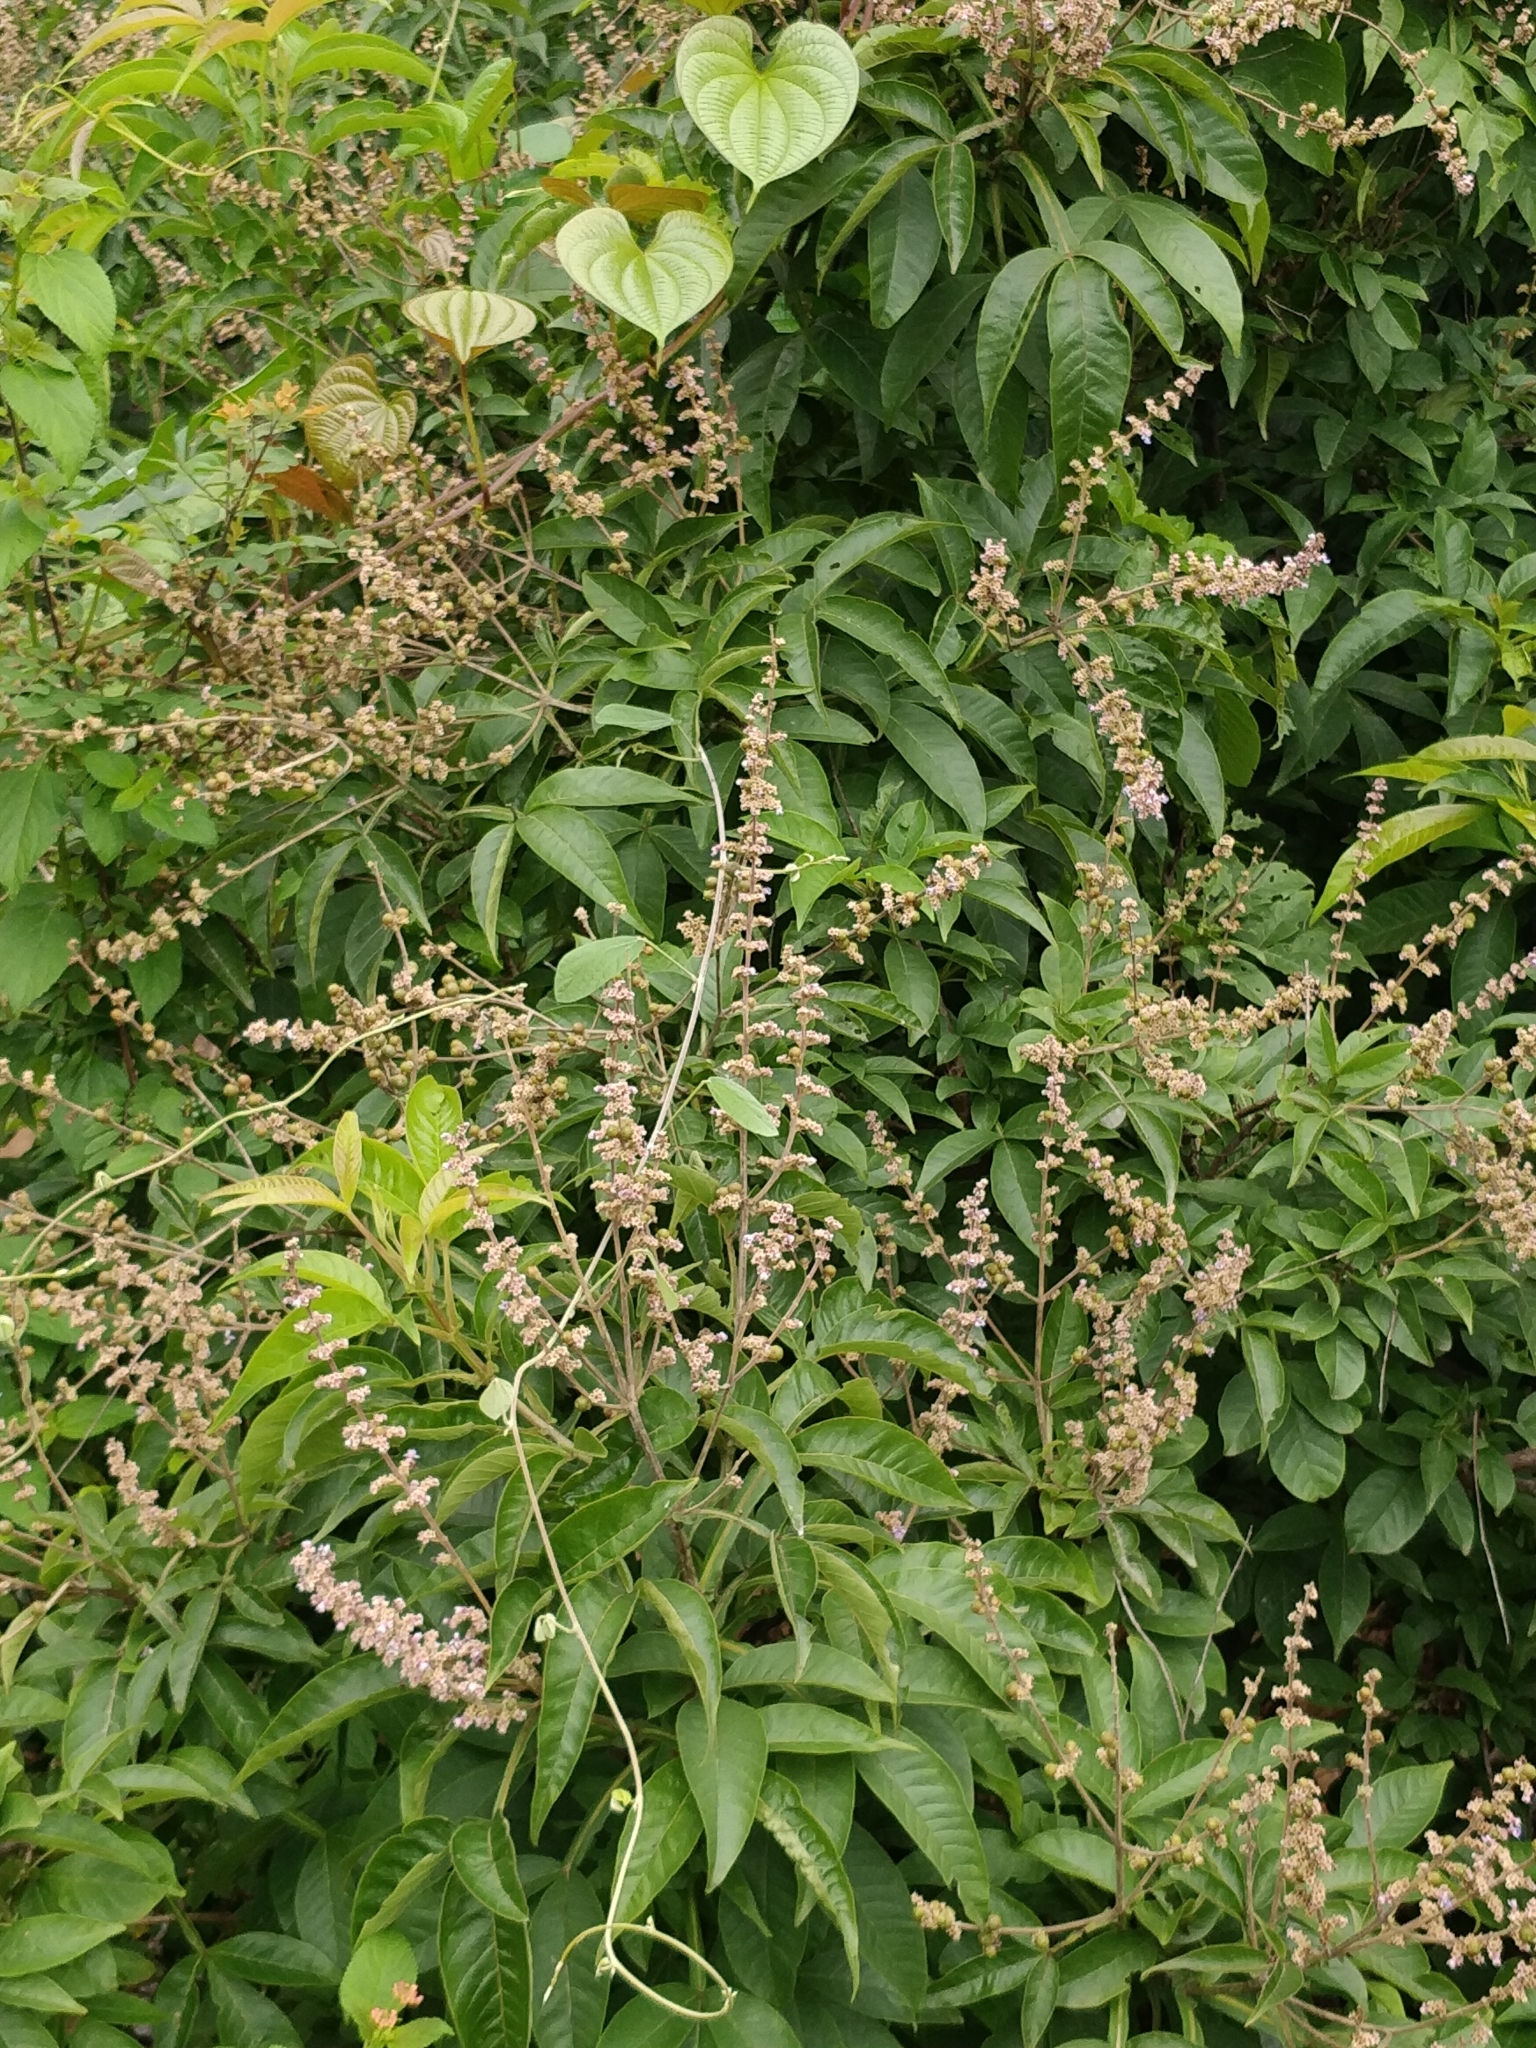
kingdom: Plantae
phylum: Tracheophyta
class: Magnoliopsida
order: Lamiales
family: Lamiaceae
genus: Vitex
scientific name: Vitex negundo
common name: Chinese chastetree
